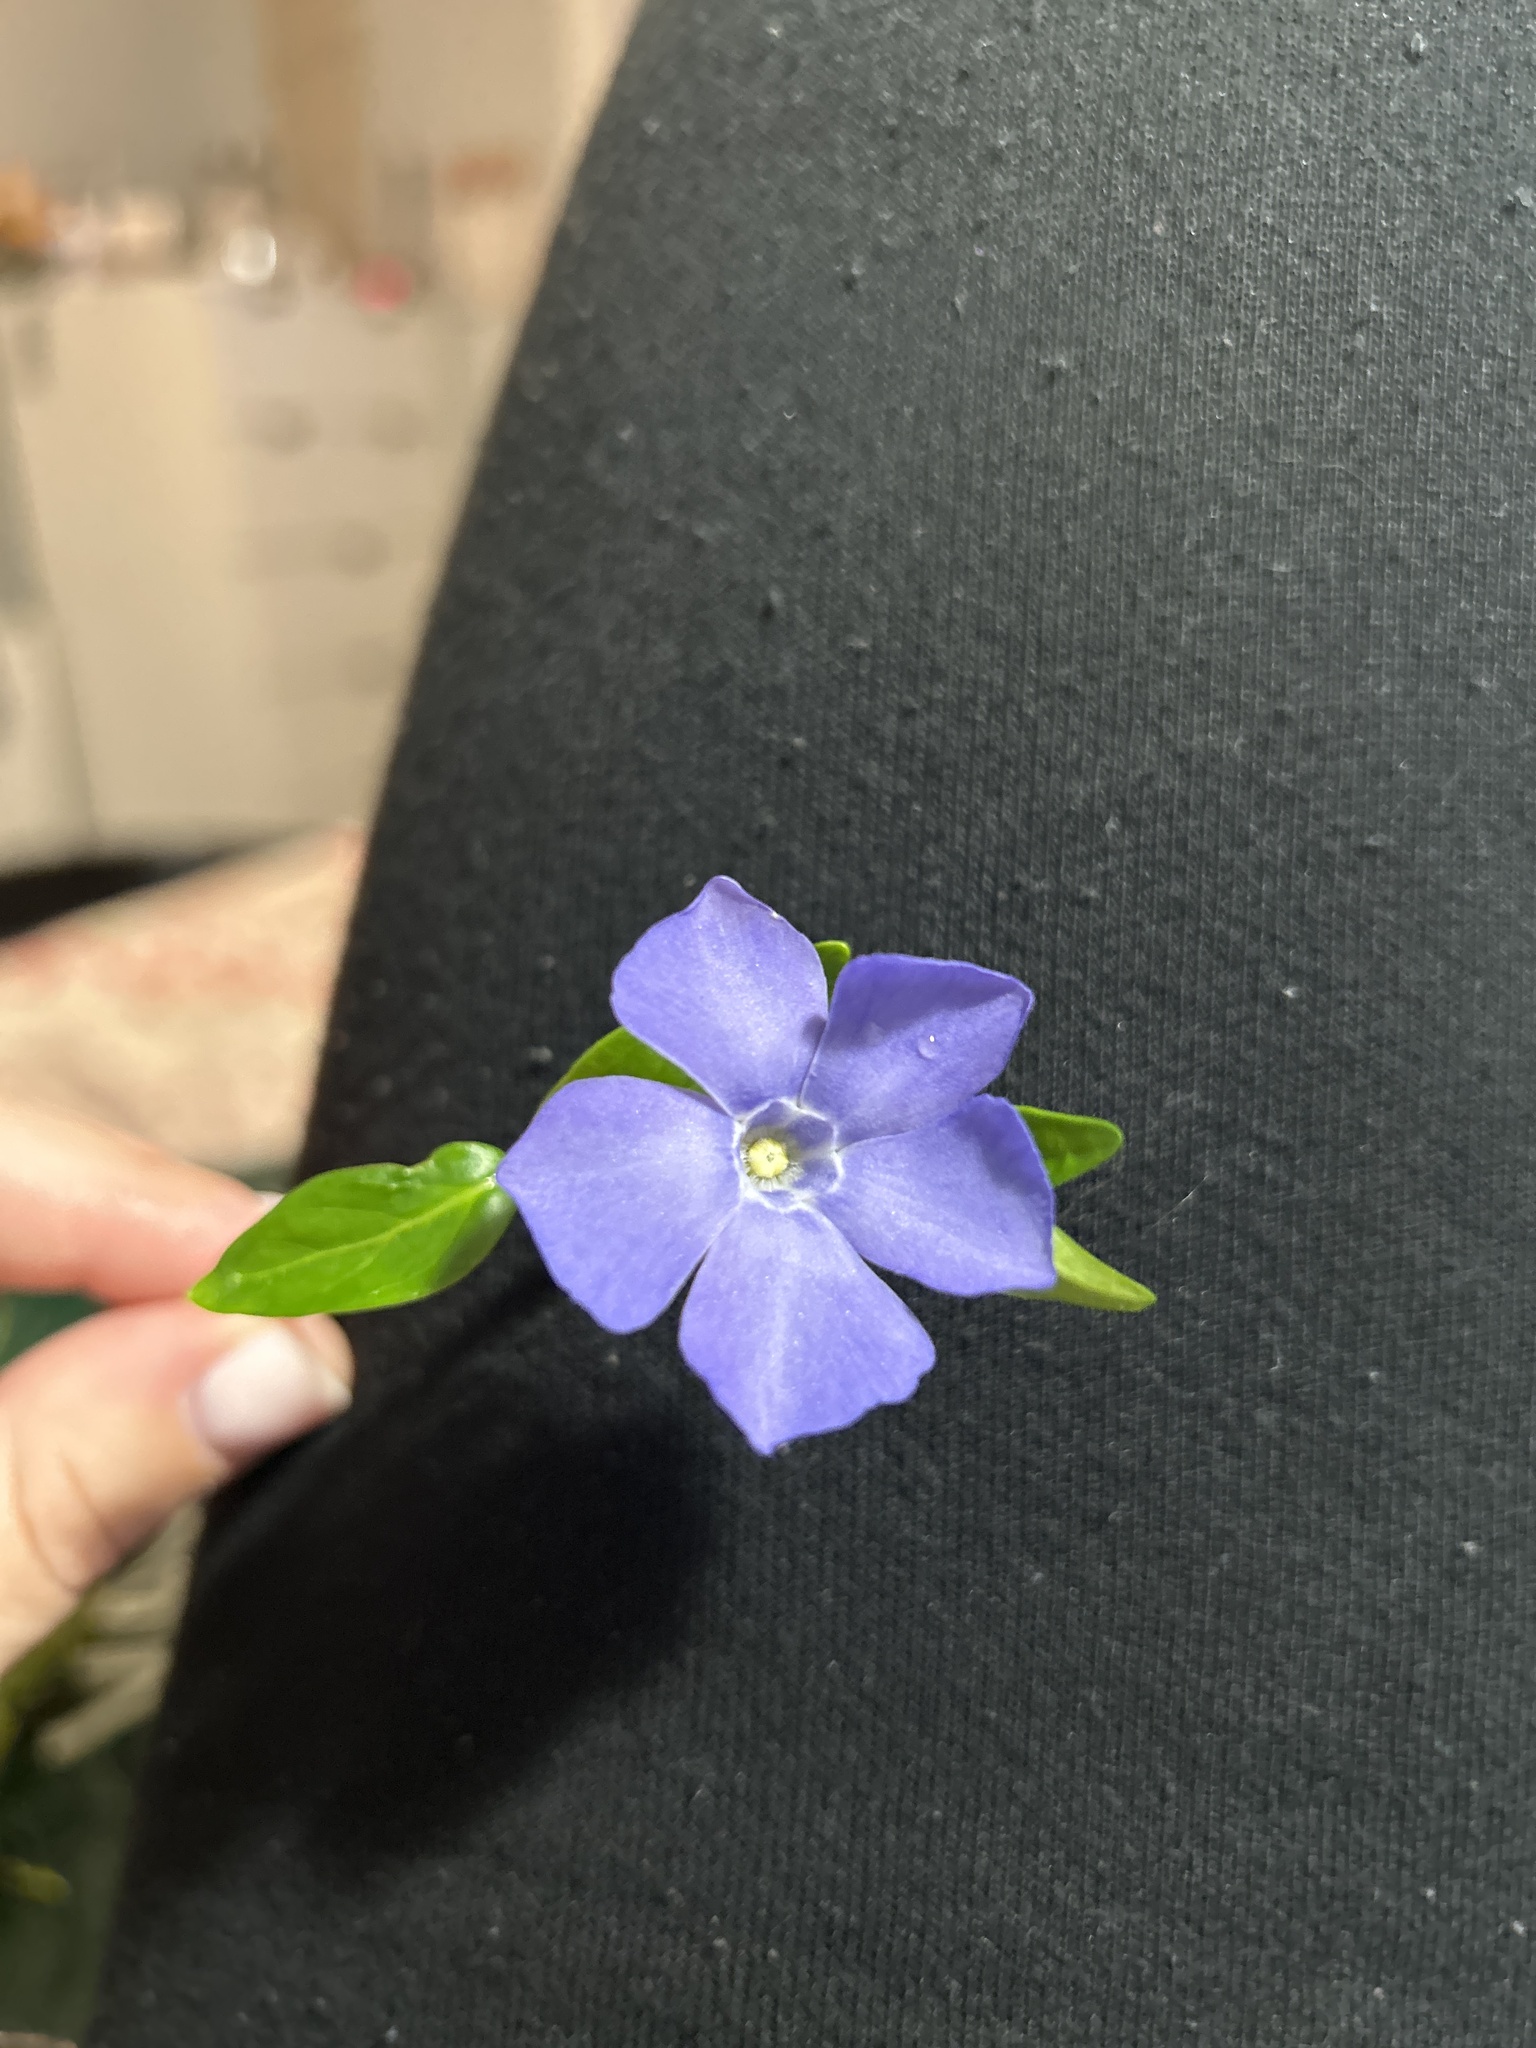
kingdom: Plantae
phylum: Tracheophyta
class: Magnoliopsida
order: Gentianales
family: Apocynaceae
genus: Vinca
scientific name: Vinca minor
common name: Lesser periwinkle
